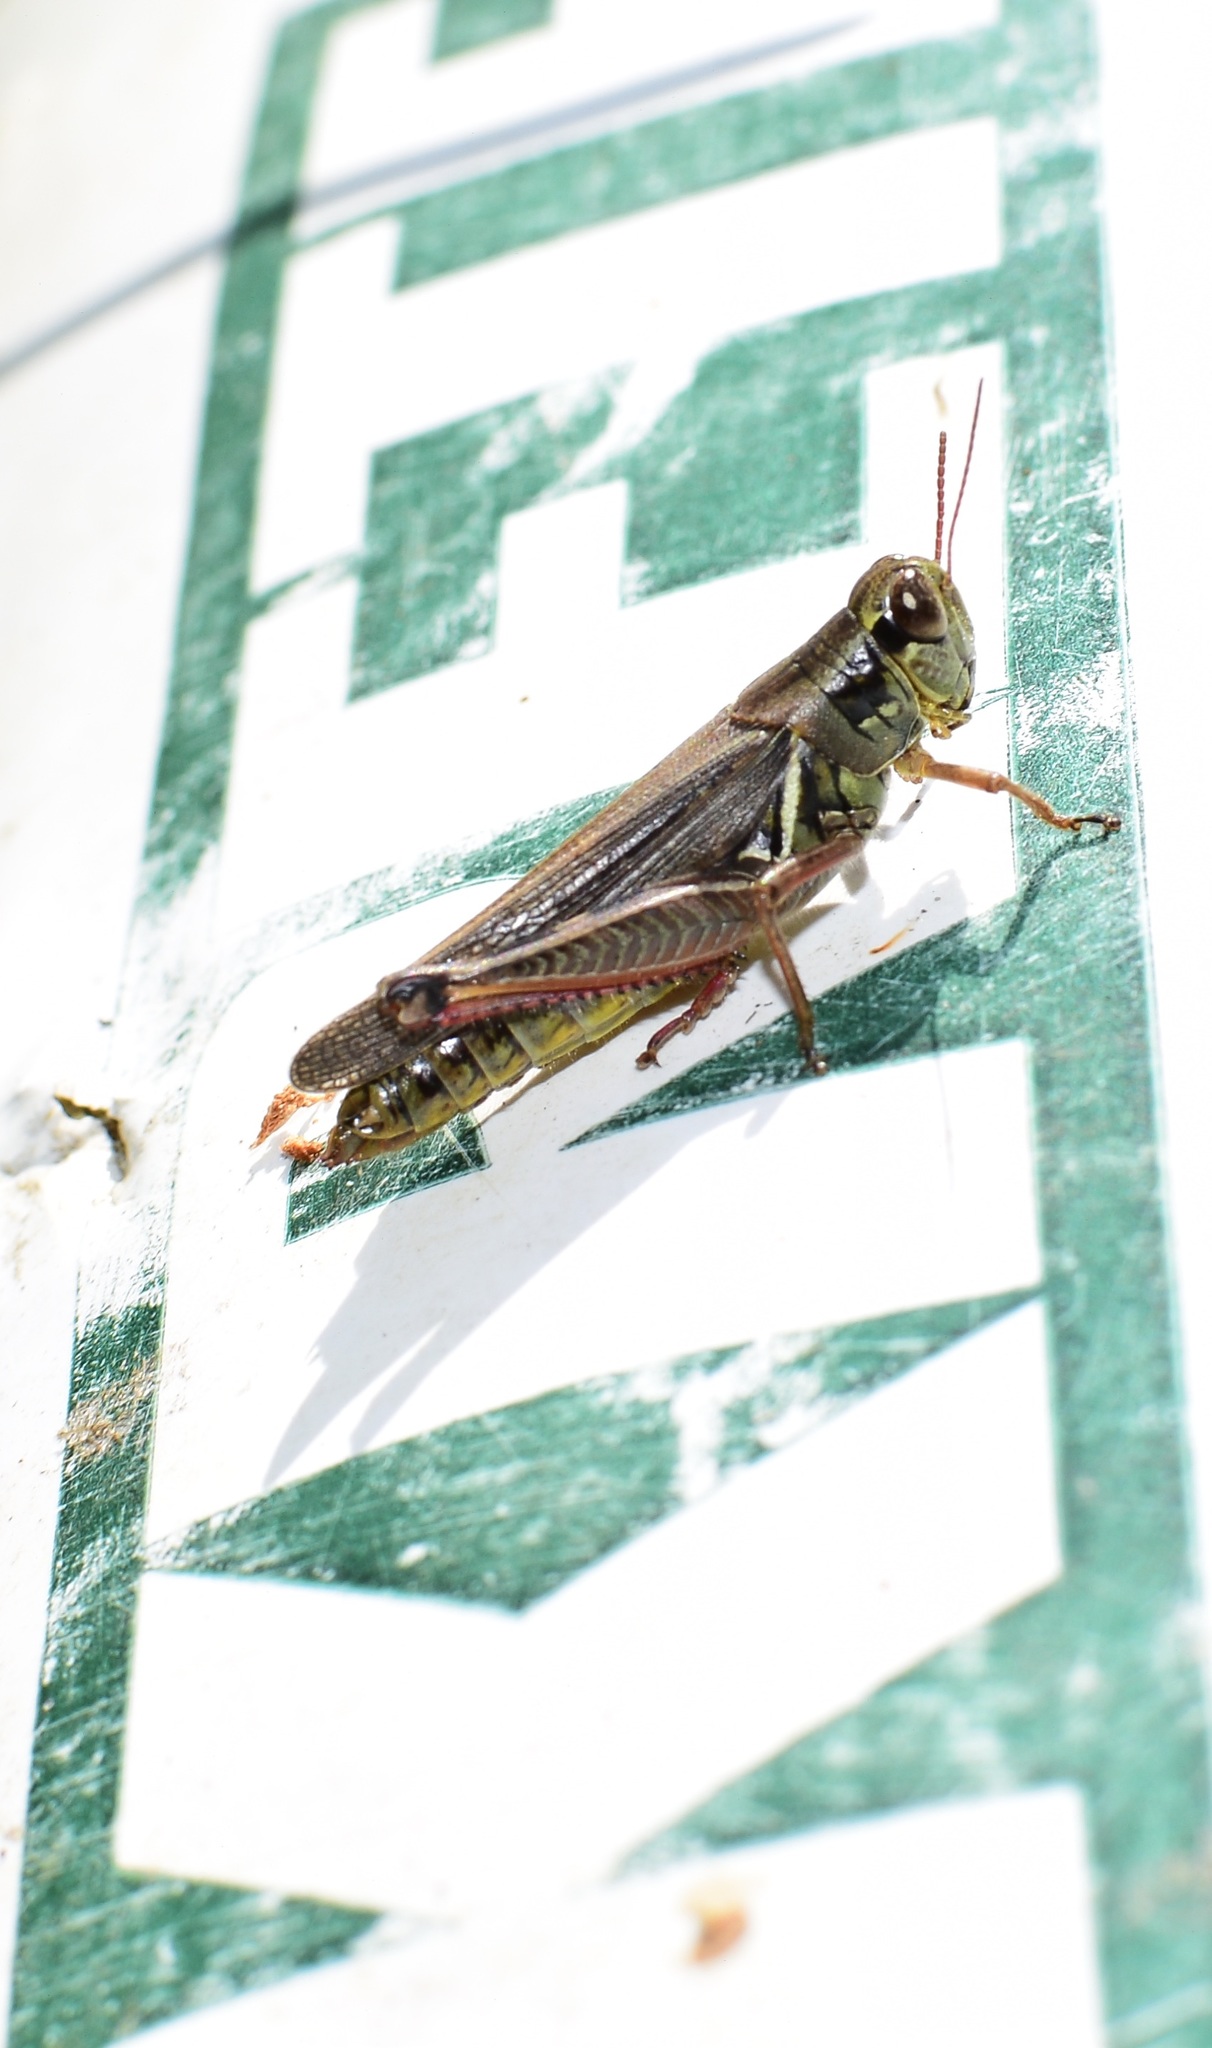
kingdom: Animalia
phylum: Arthropoda
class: Insecta
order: Orthoptera
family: Acrididae
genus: Melanoplus
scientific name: Melanoplus femurrubrum
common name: Red-legged grasshopper
